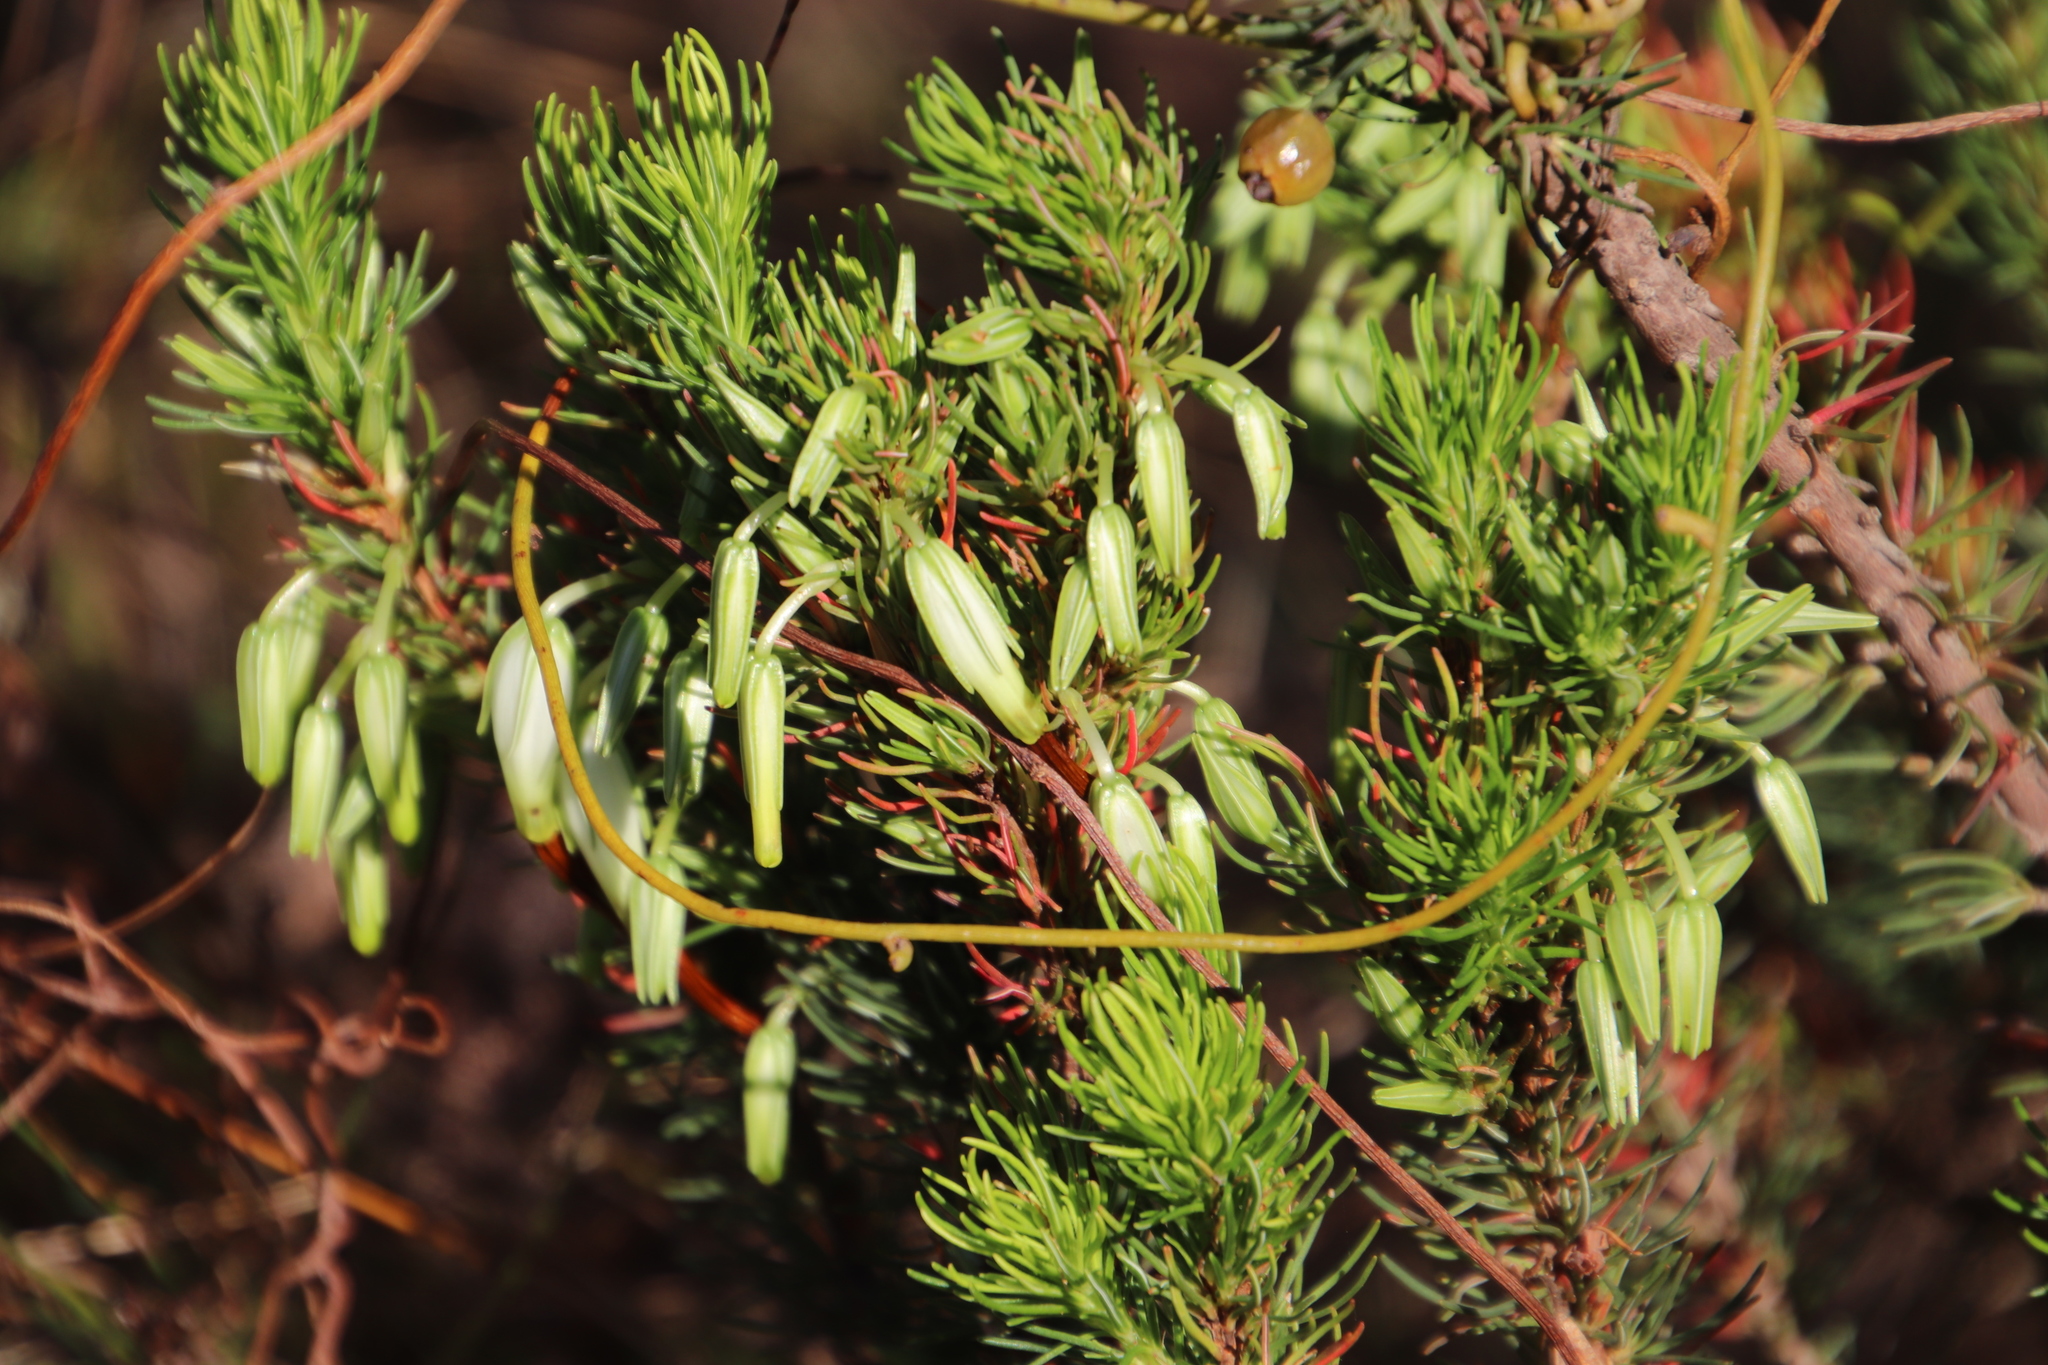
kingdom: Plantae
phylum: Tracheophyta
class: Magnoliopsida
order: Ericales
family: Ericaceae
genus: Erica
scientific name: Erica plukenetii
